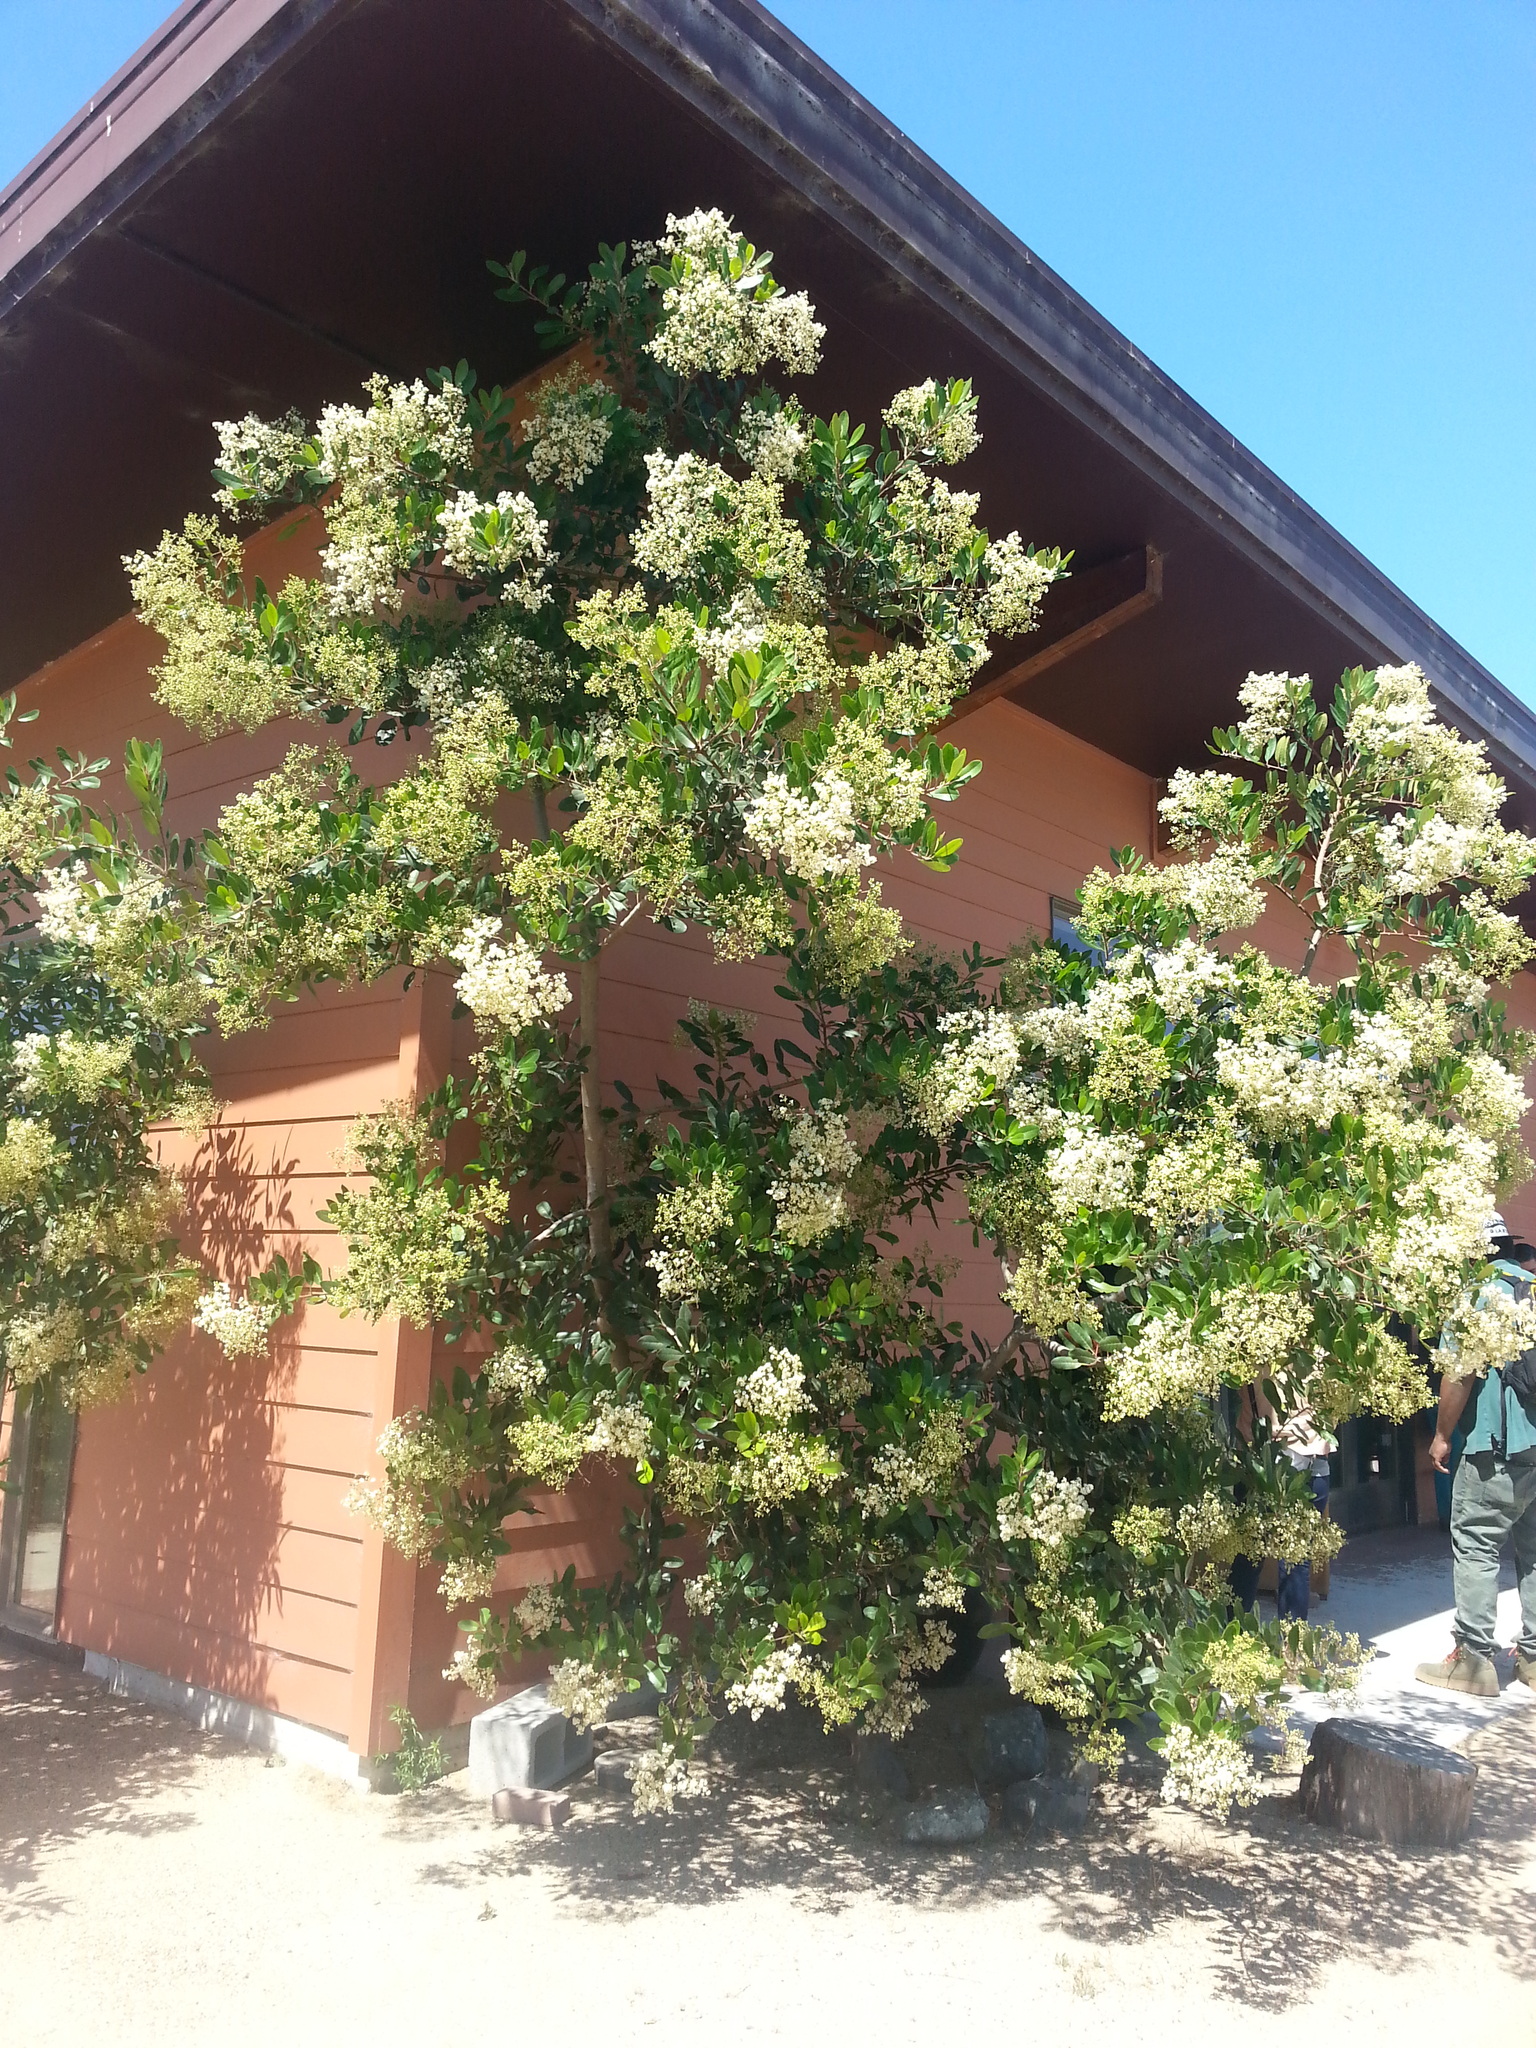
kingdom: Plantae
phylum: Tracheophyta
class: Magnoliopsida
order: Rosales
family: Rosaceae
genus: Heteromeles
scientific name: Heteromeles arbutifolia
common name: California-holly
